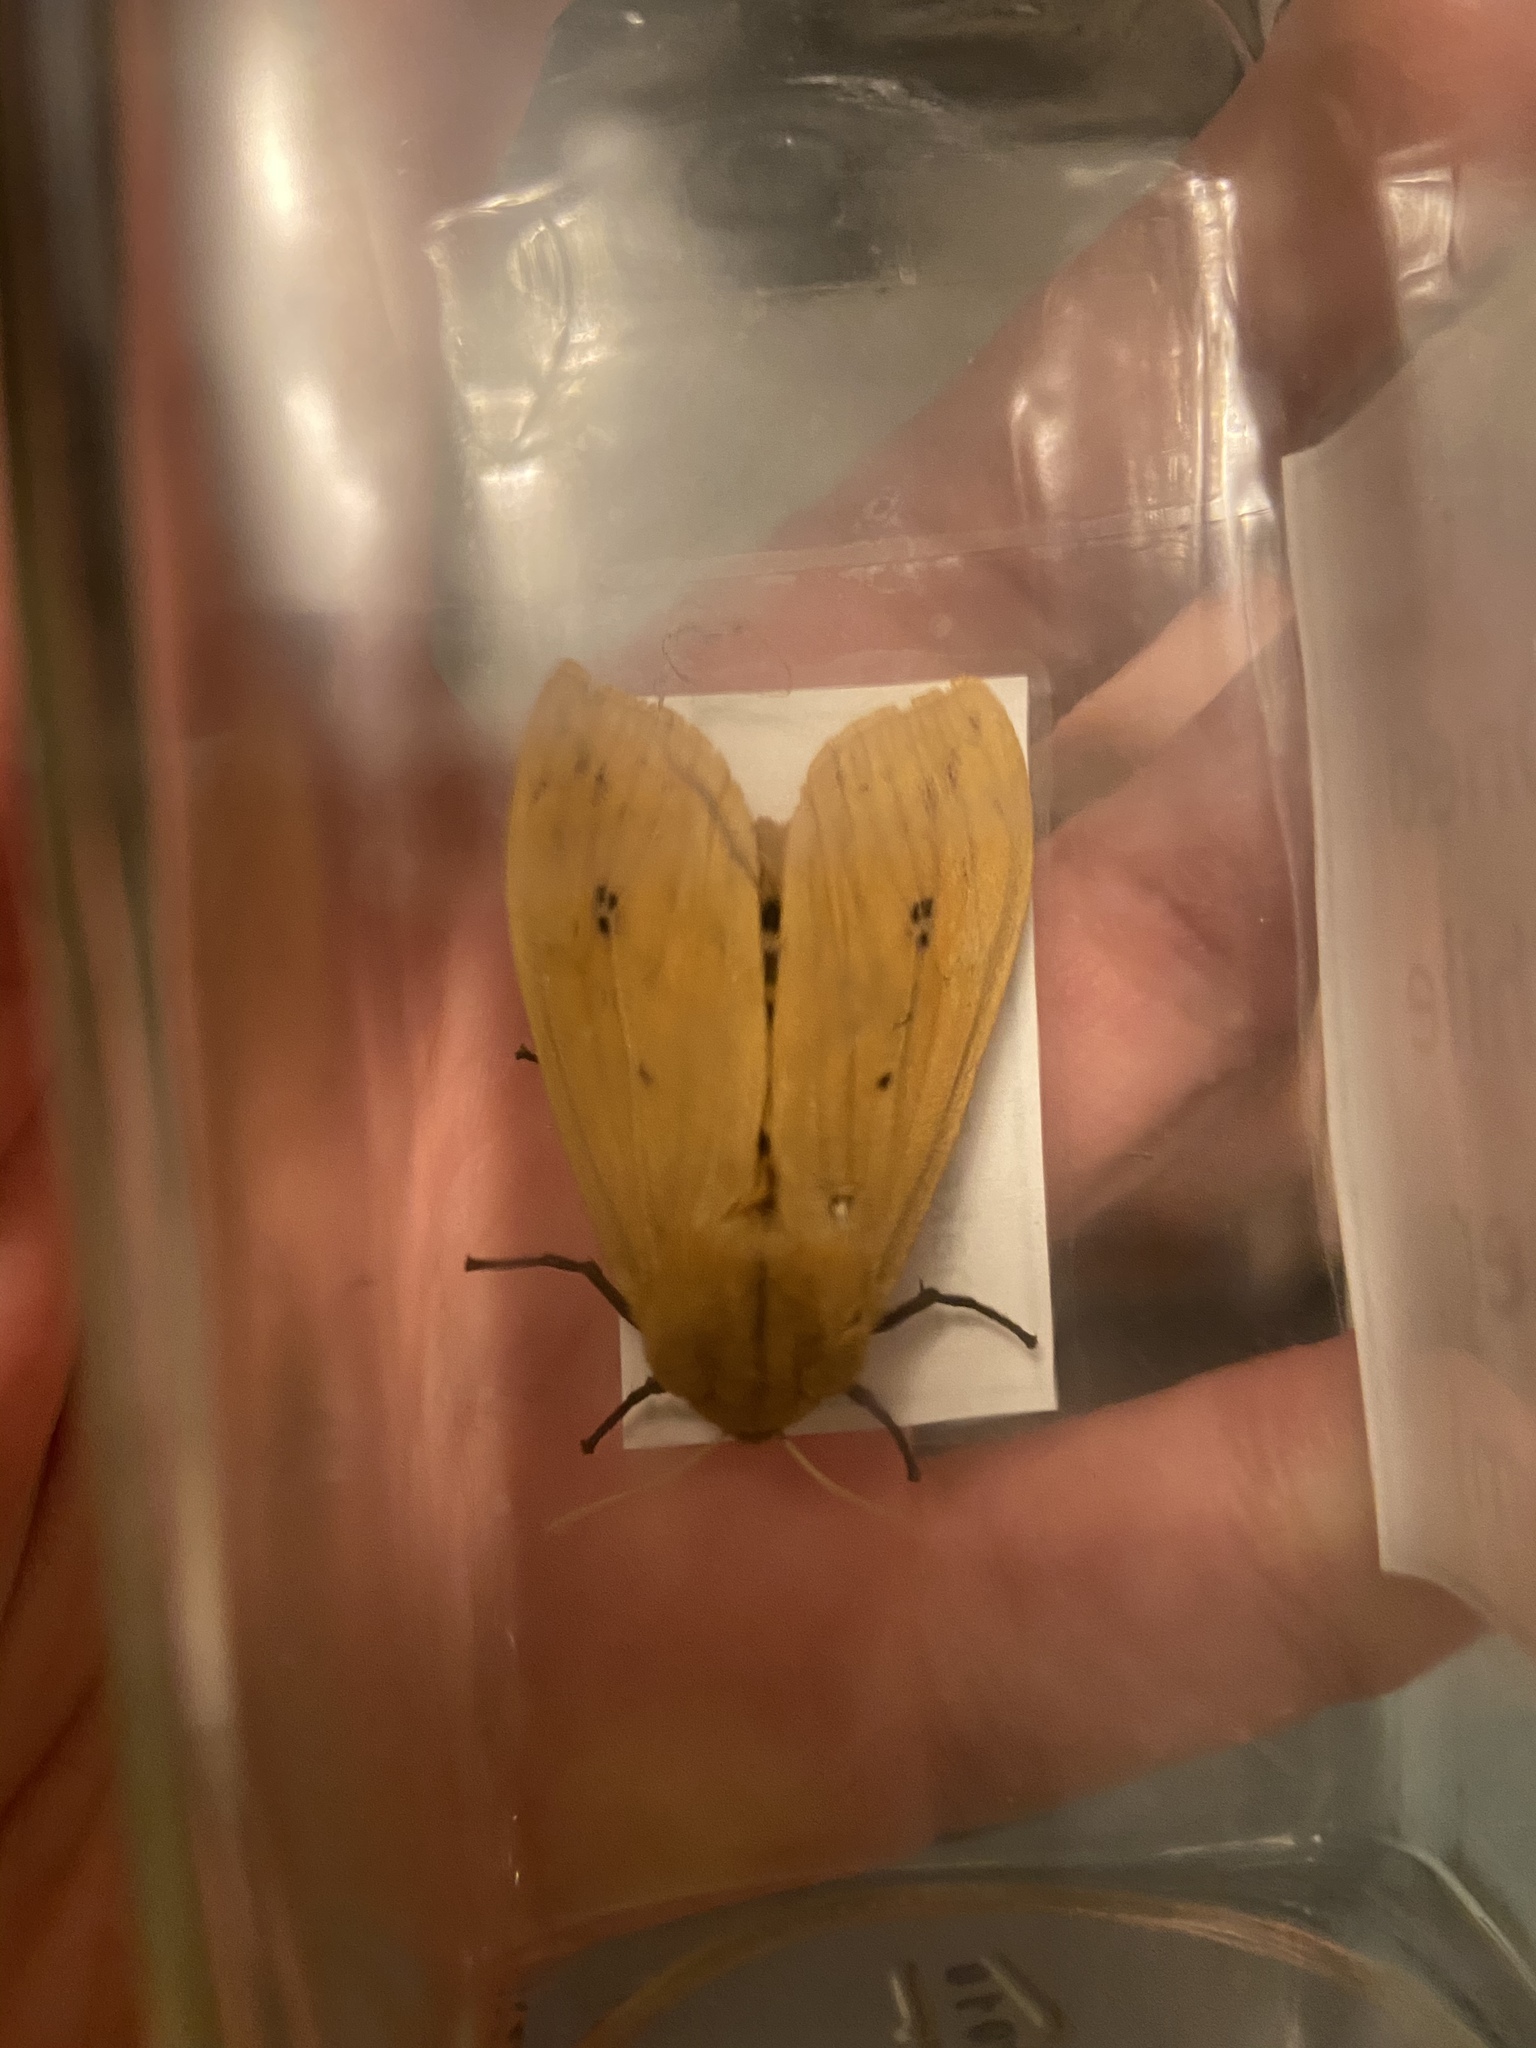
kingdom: Animalia
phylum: Arthropoda
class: Insecta
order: Lepidoptera
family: Erebidae
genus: Pyrrharctia
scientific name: Pyrrharctia isabella
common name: Isabella tiger moth
